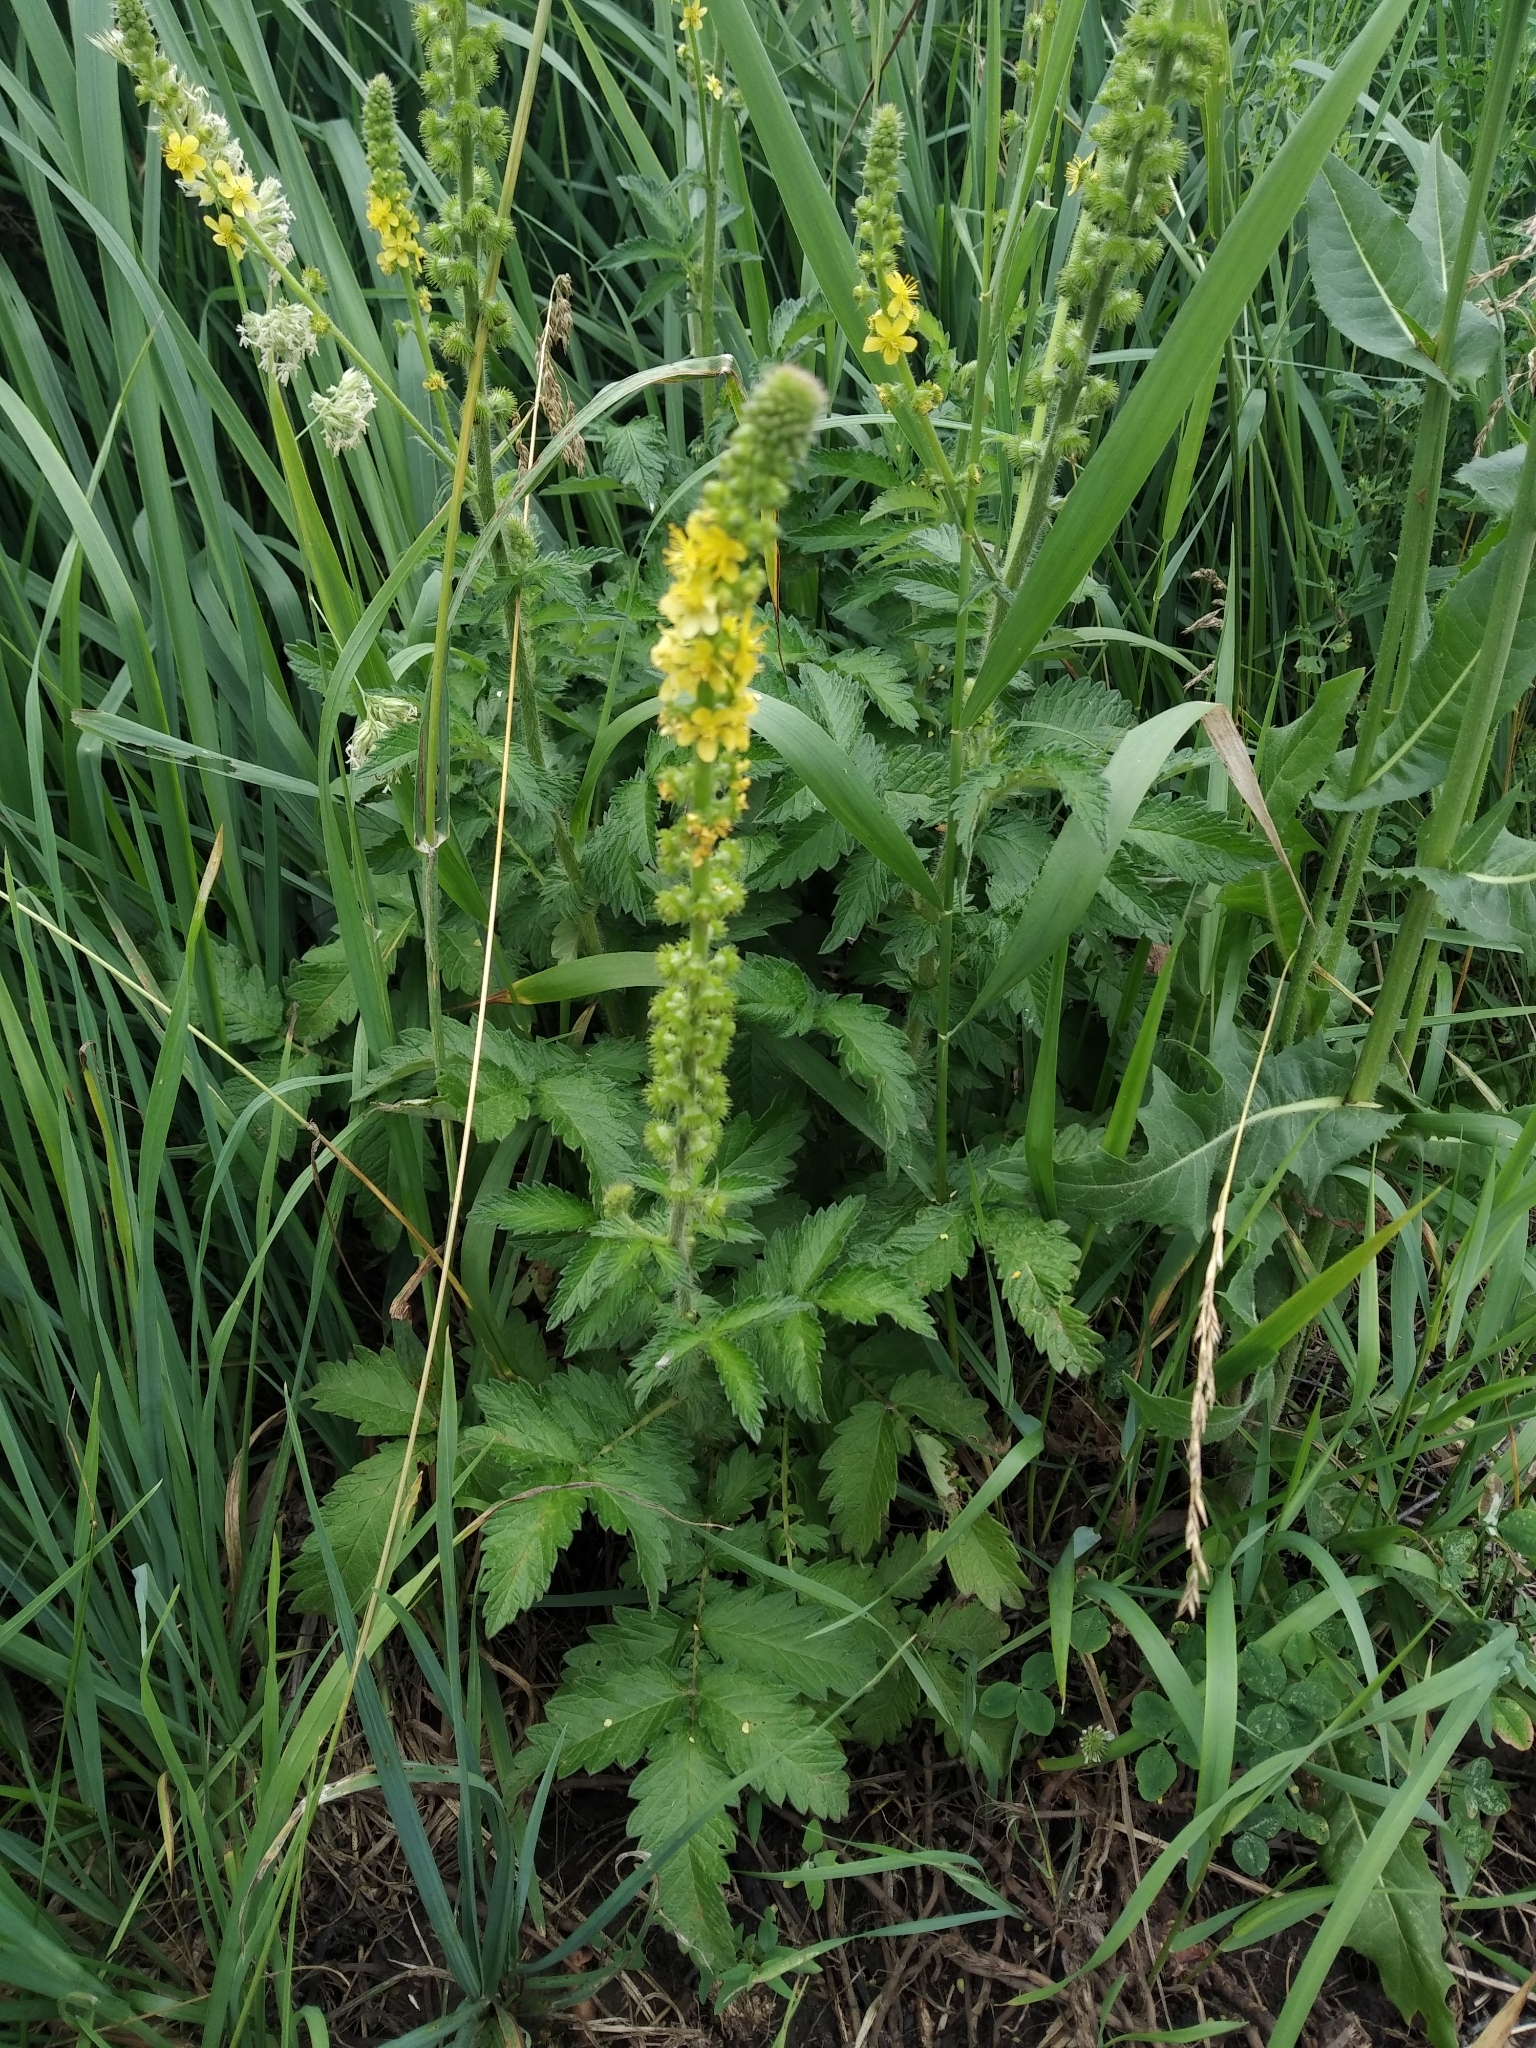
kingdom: Plantae
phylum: Tracheophyta
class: Magnoliopsida
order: Rosales
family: Rosaceae
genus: Agrimonia
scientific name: Agrimonia eupatoria
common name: Agrimony
